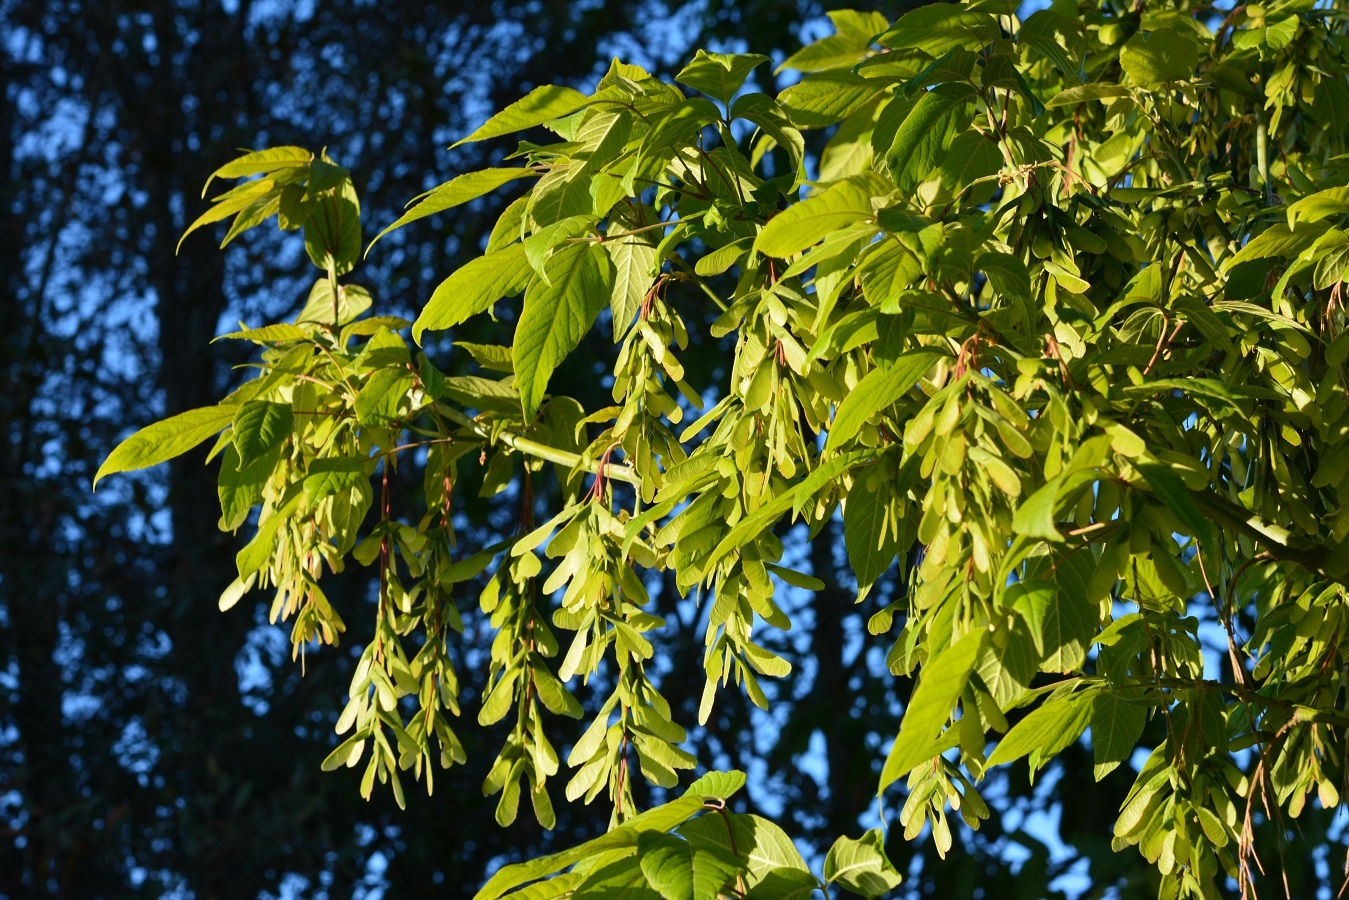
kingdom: Plantae
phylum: Tracheophyta
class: Magnoliopsida
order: Sapindales
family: Sapindaceae
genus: Acer
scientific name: Acer negundo
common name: Ashleaf maple
